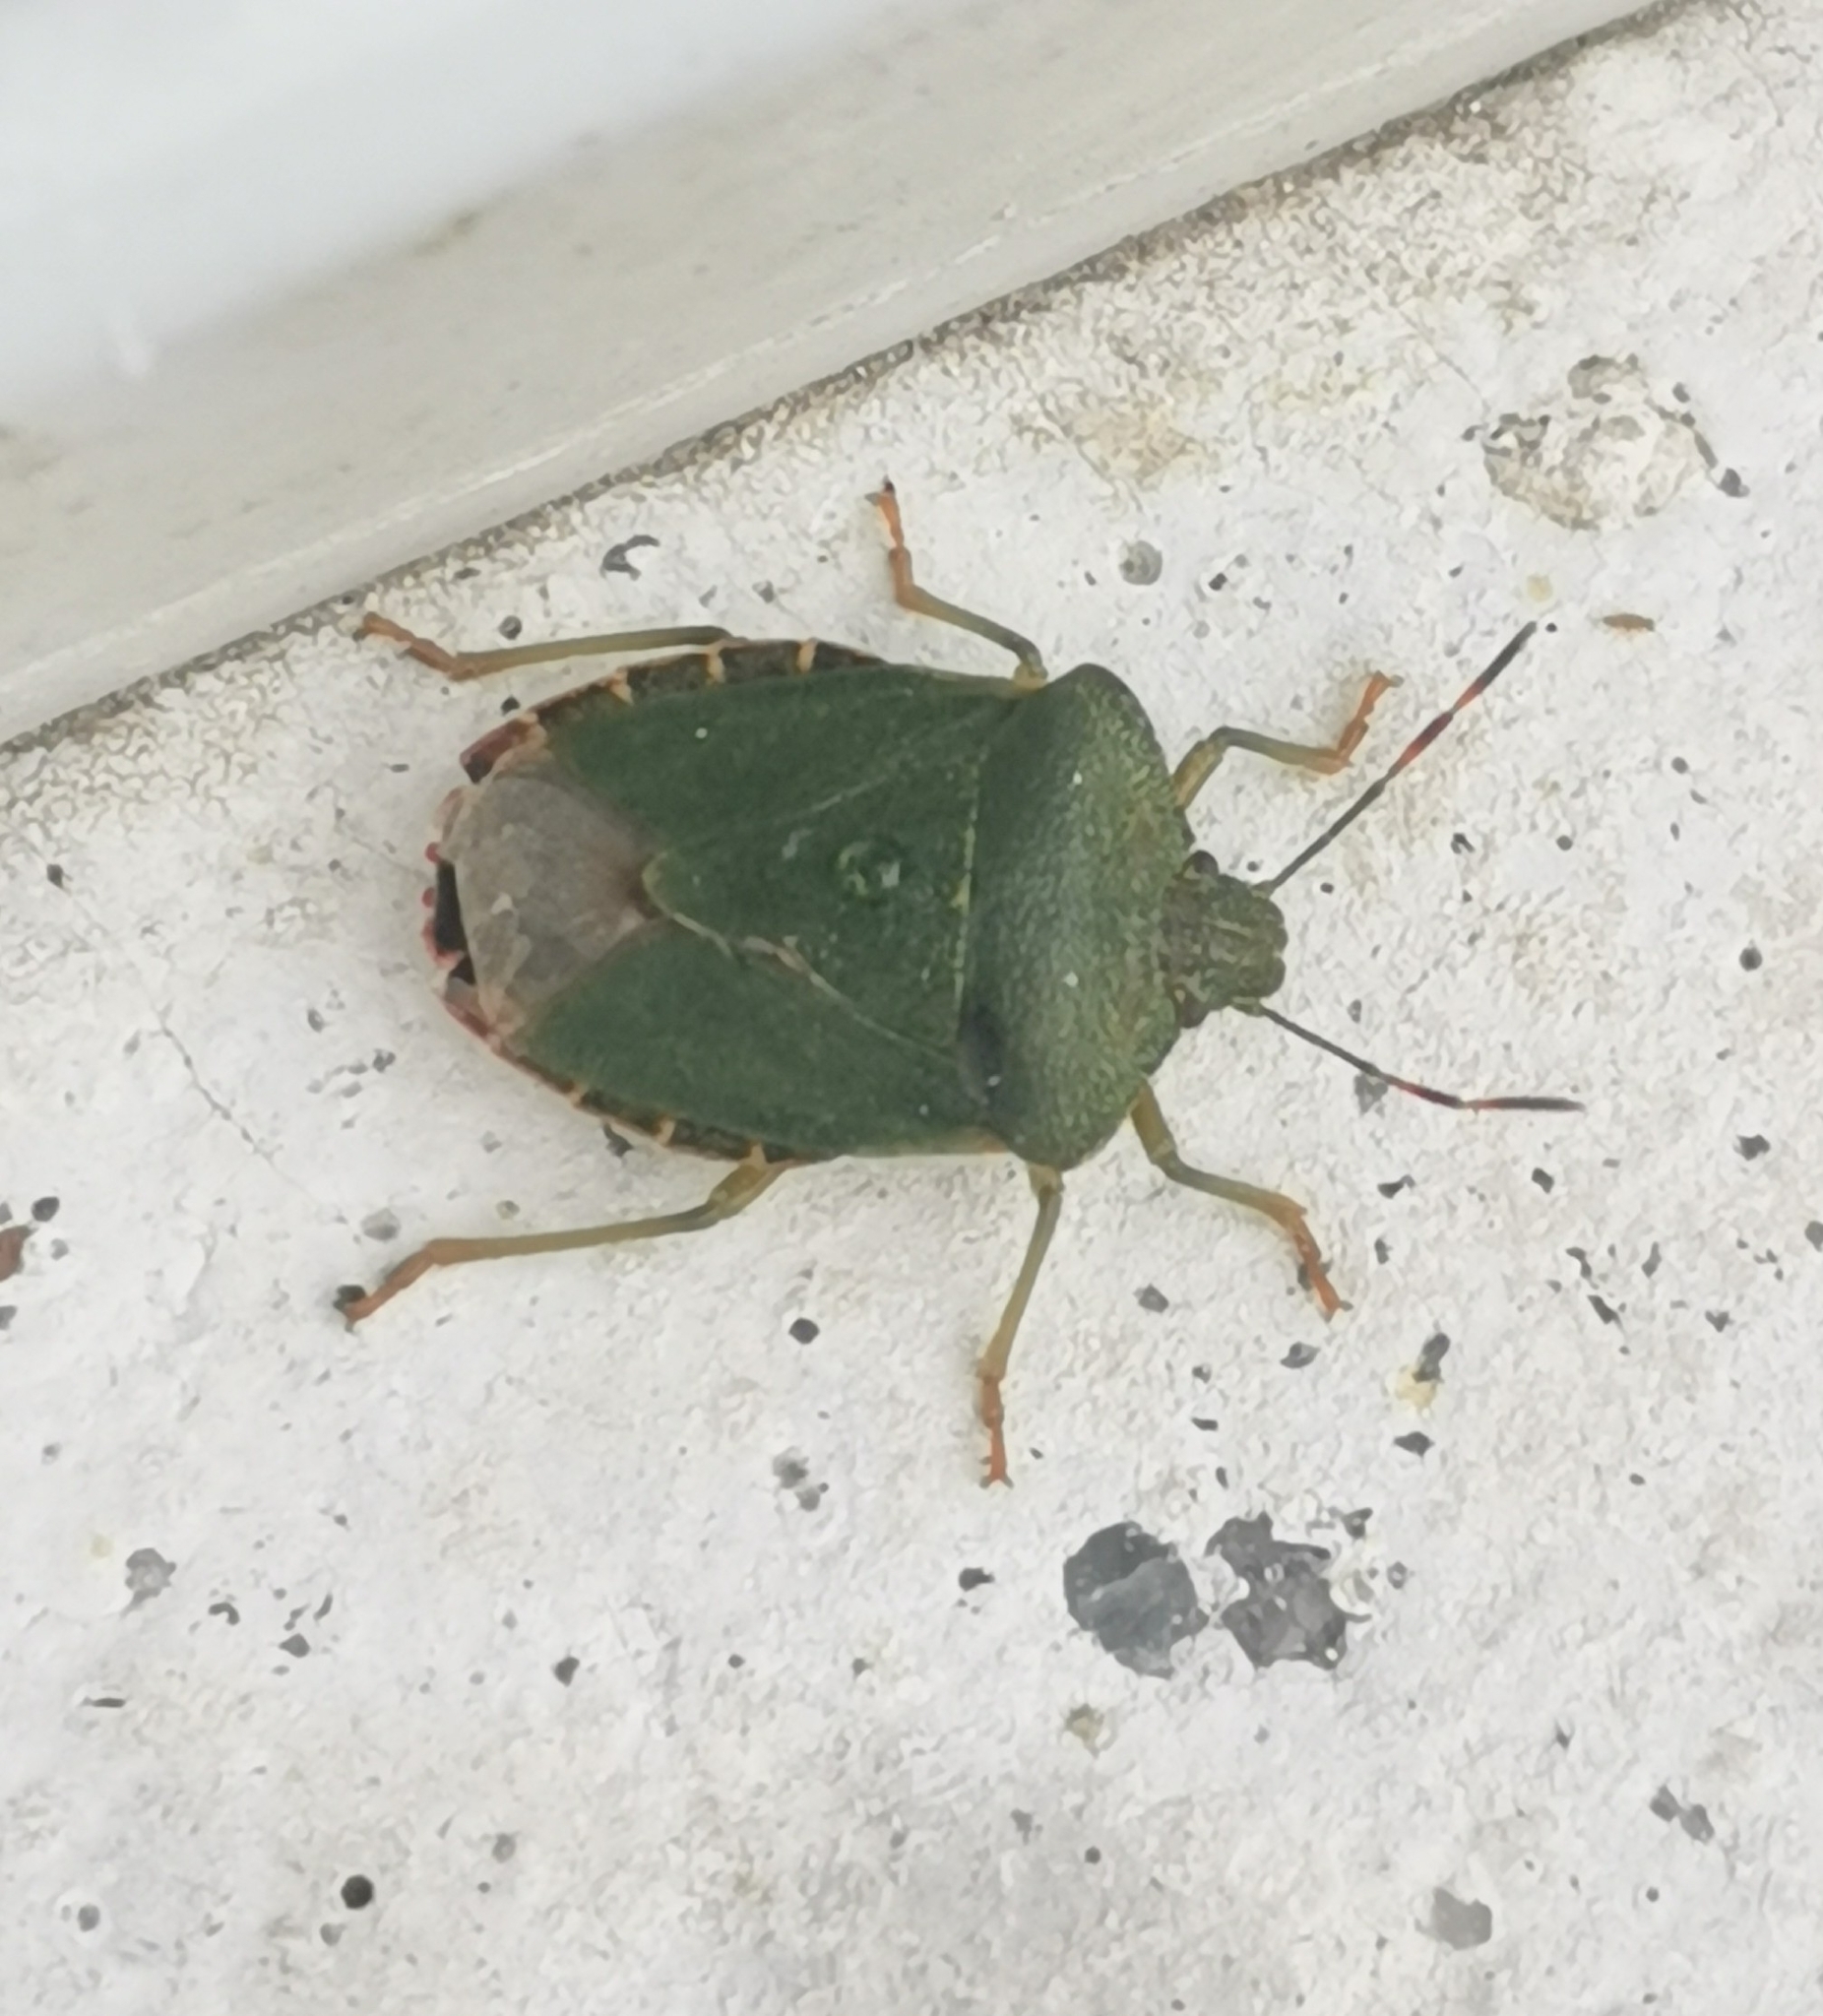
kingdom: Animalia
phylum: Arthropoda
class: Insecta
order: Hemiptera
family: Pentatomidae
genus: Palomena
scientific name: Palomena prasina
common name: Green shieldbug
